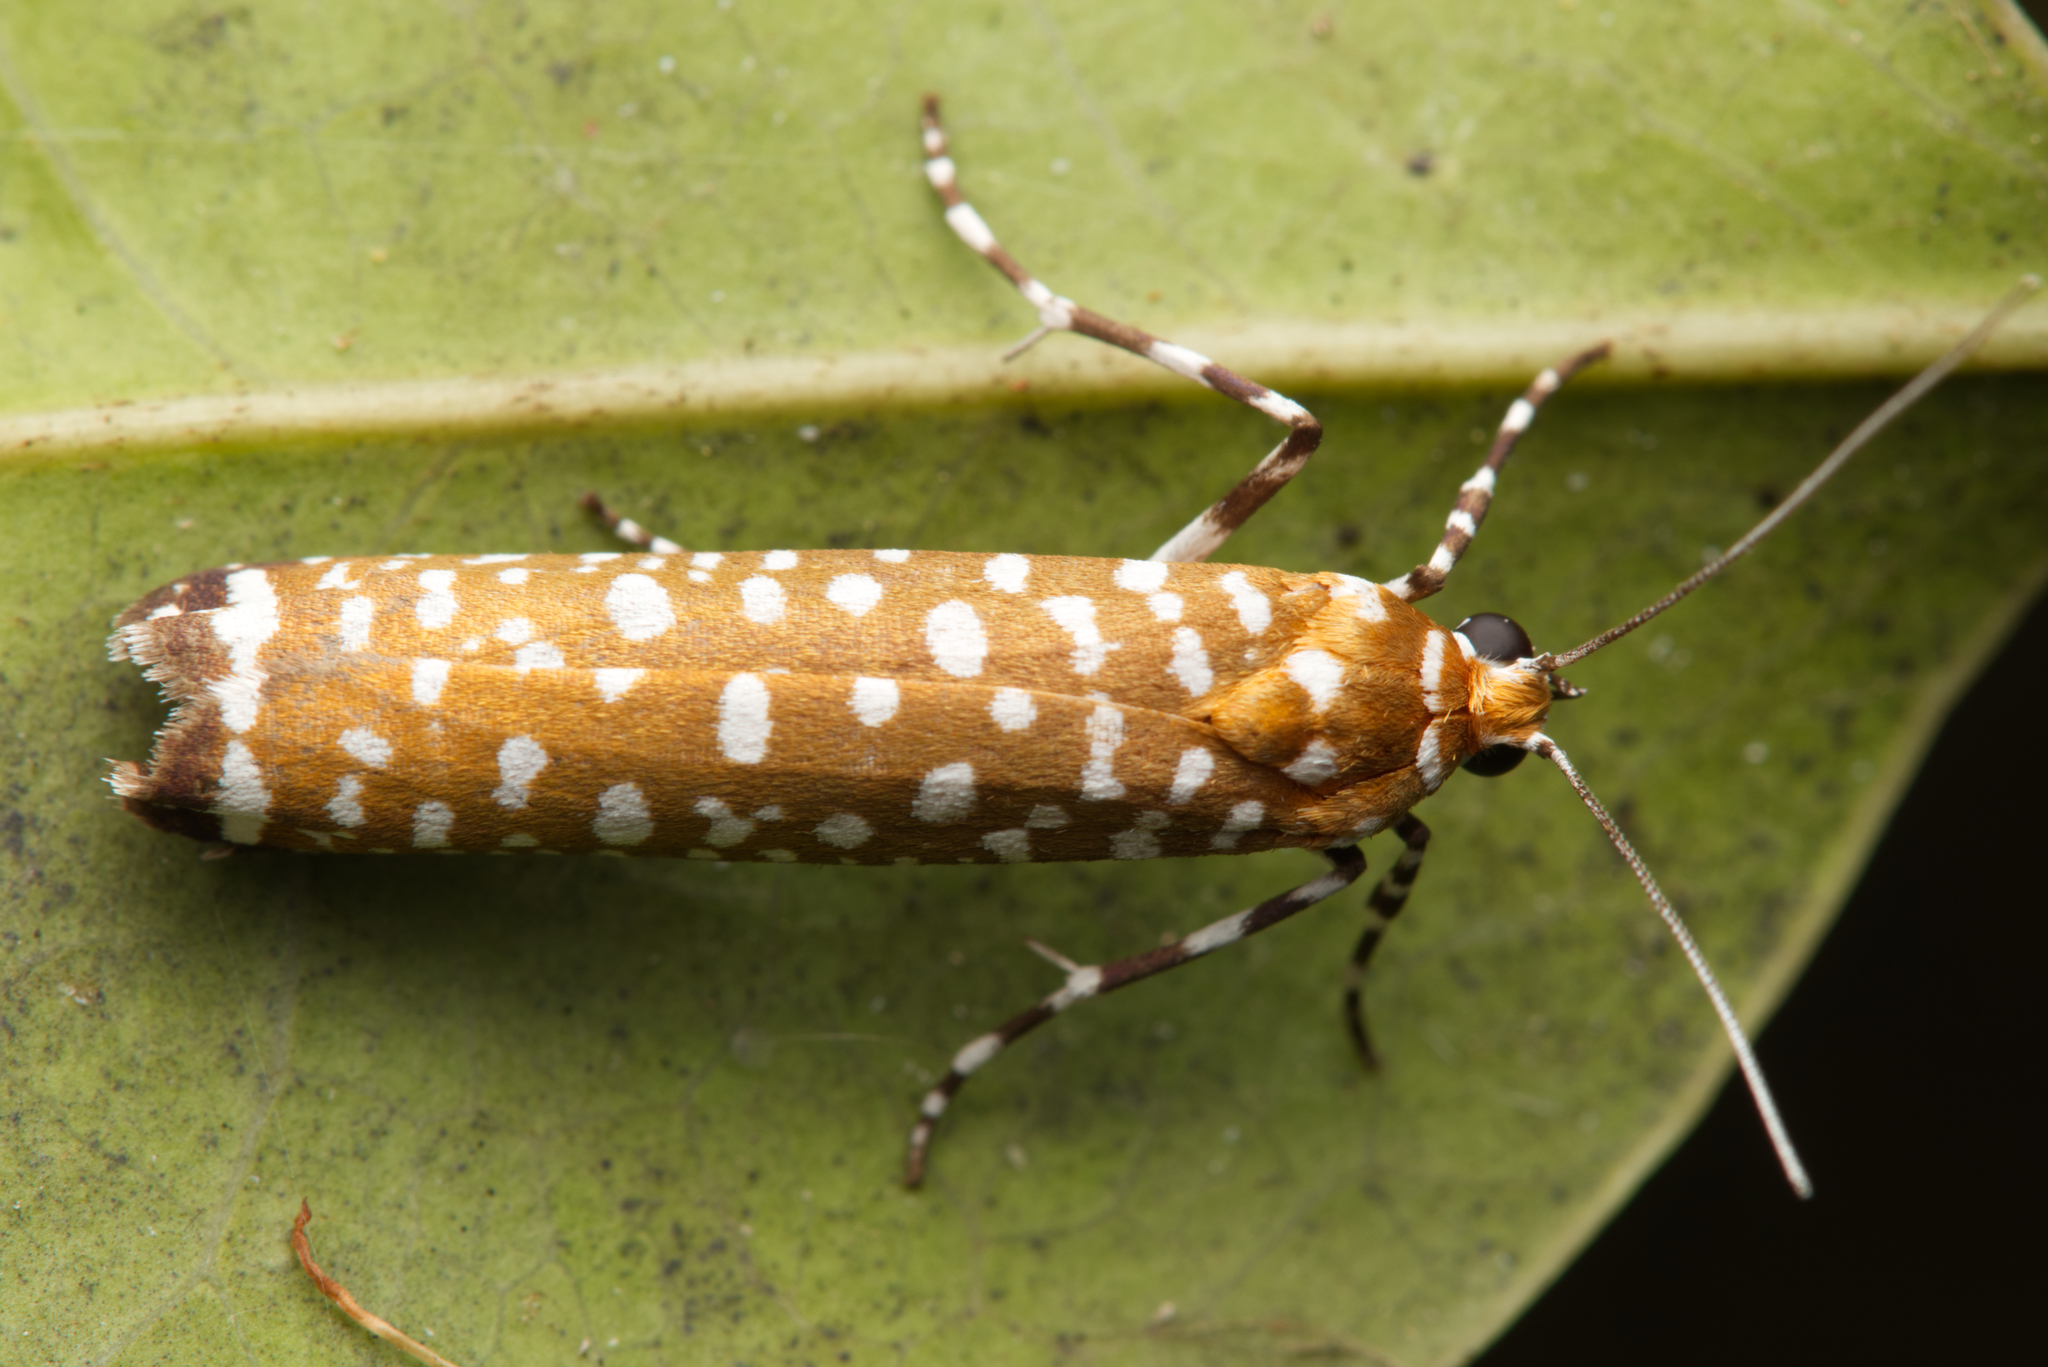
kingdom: Animalia
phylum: Arthropoda
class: Insecta
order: Lepidoptera
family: Attevidae
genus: Atteva
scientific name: Atteva albiguttata
